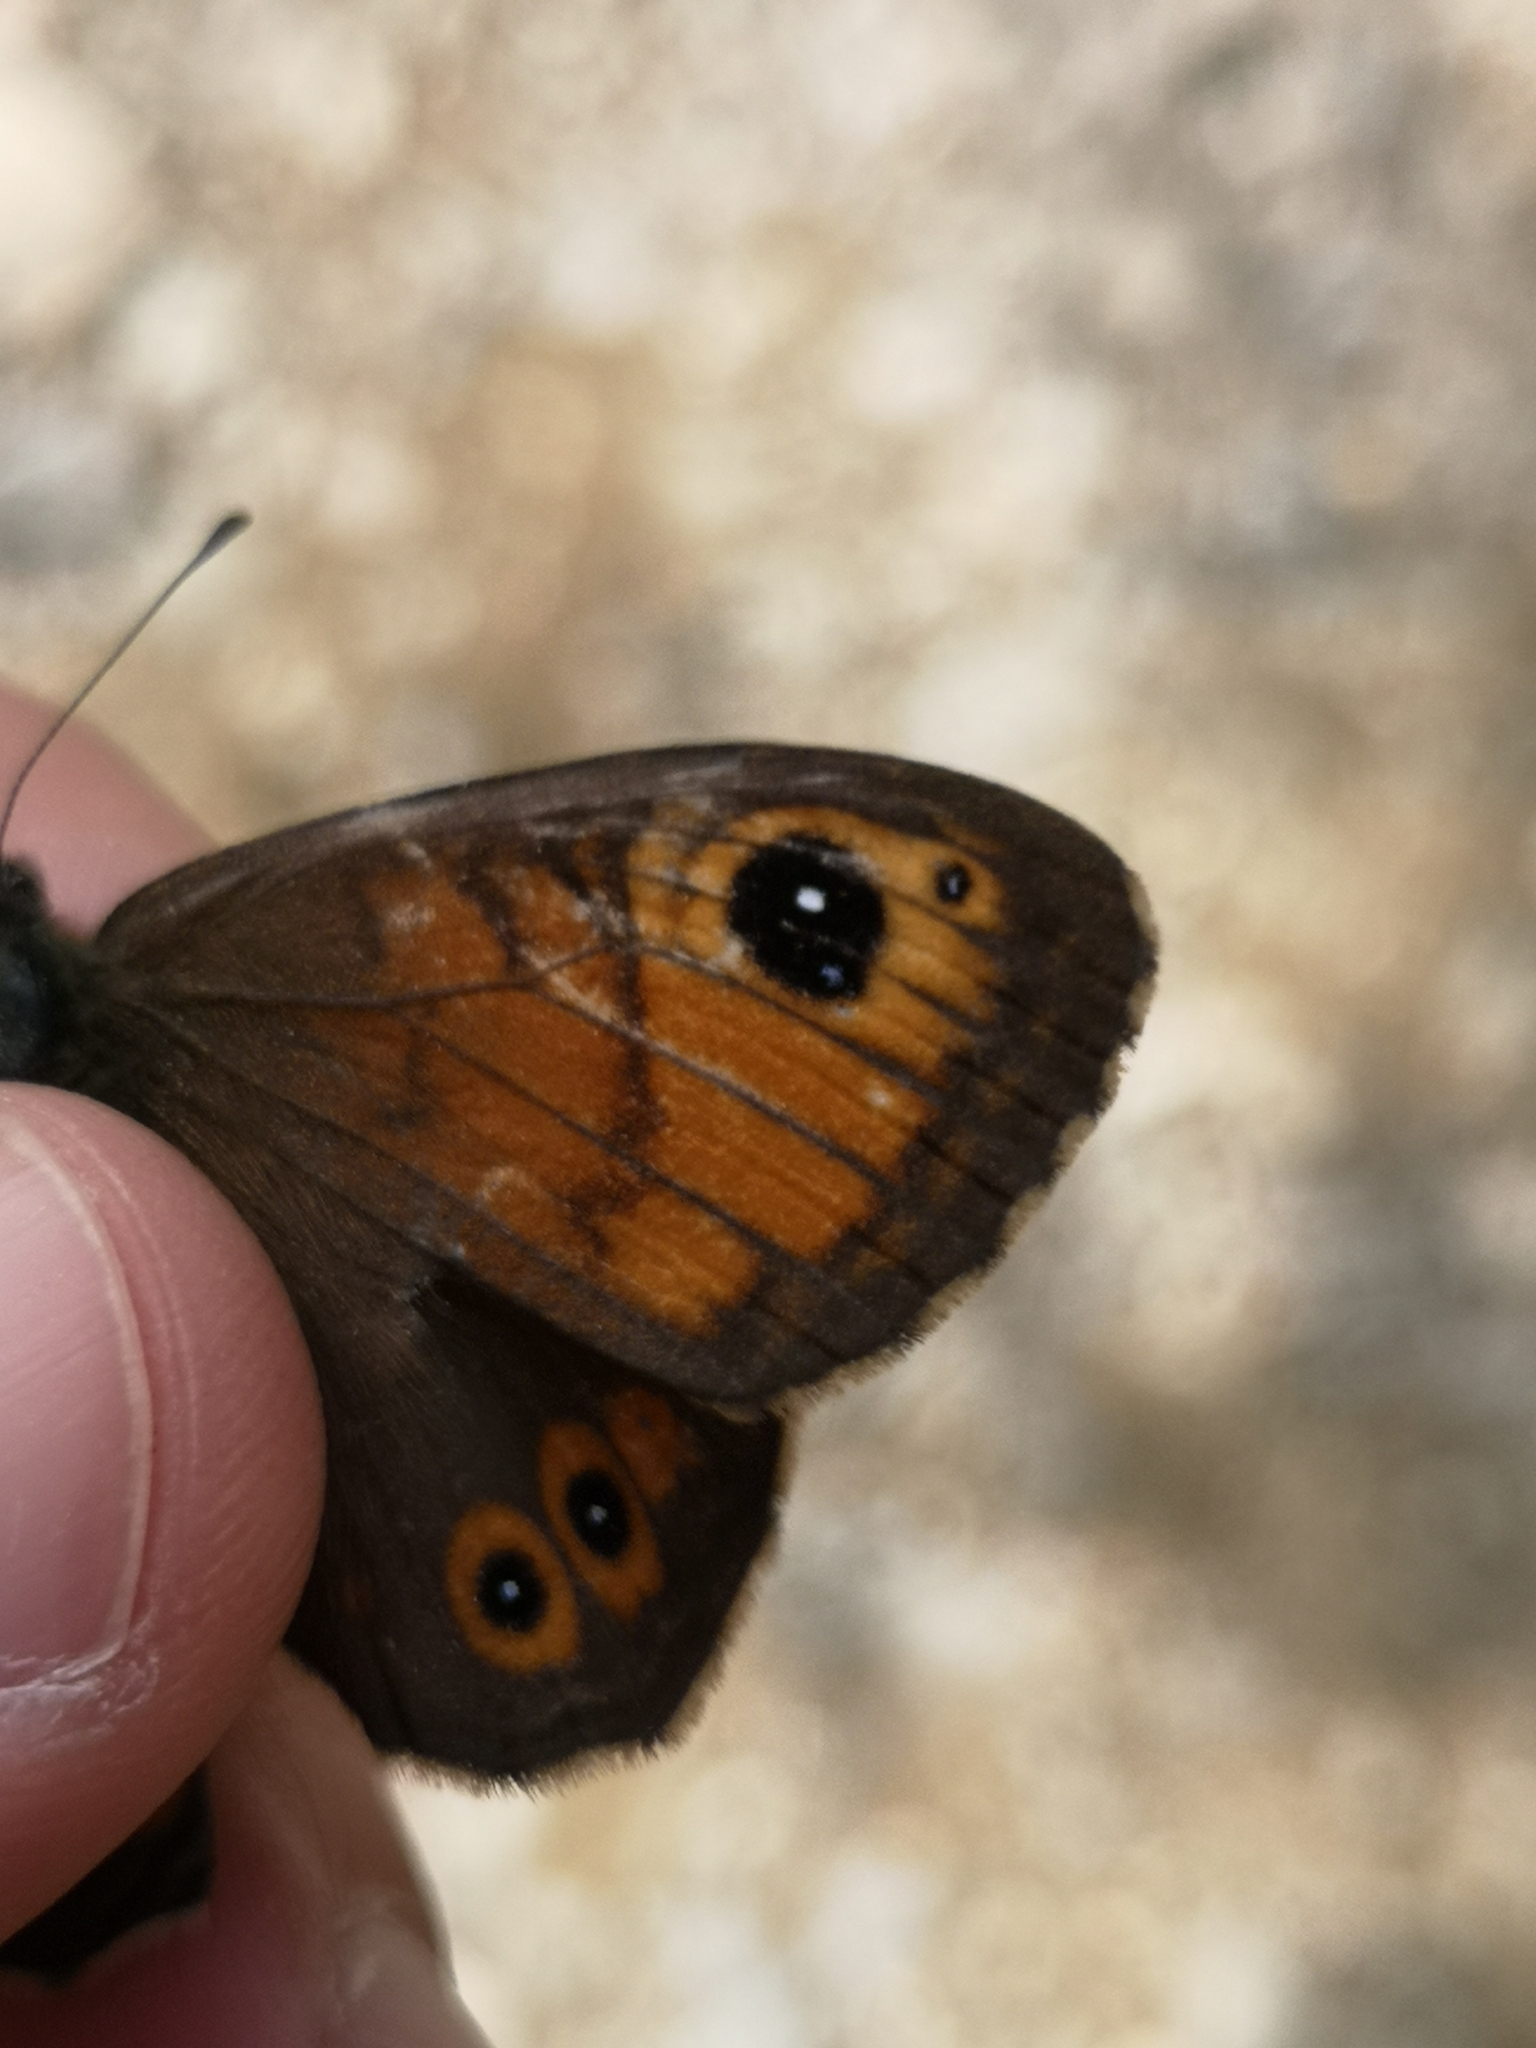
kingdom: Animalia
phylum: Arthropoda
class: Insecta
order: Lepidoptera
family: Nymphalidae
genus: Pararge
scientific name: Pararge Lasiommata maera
